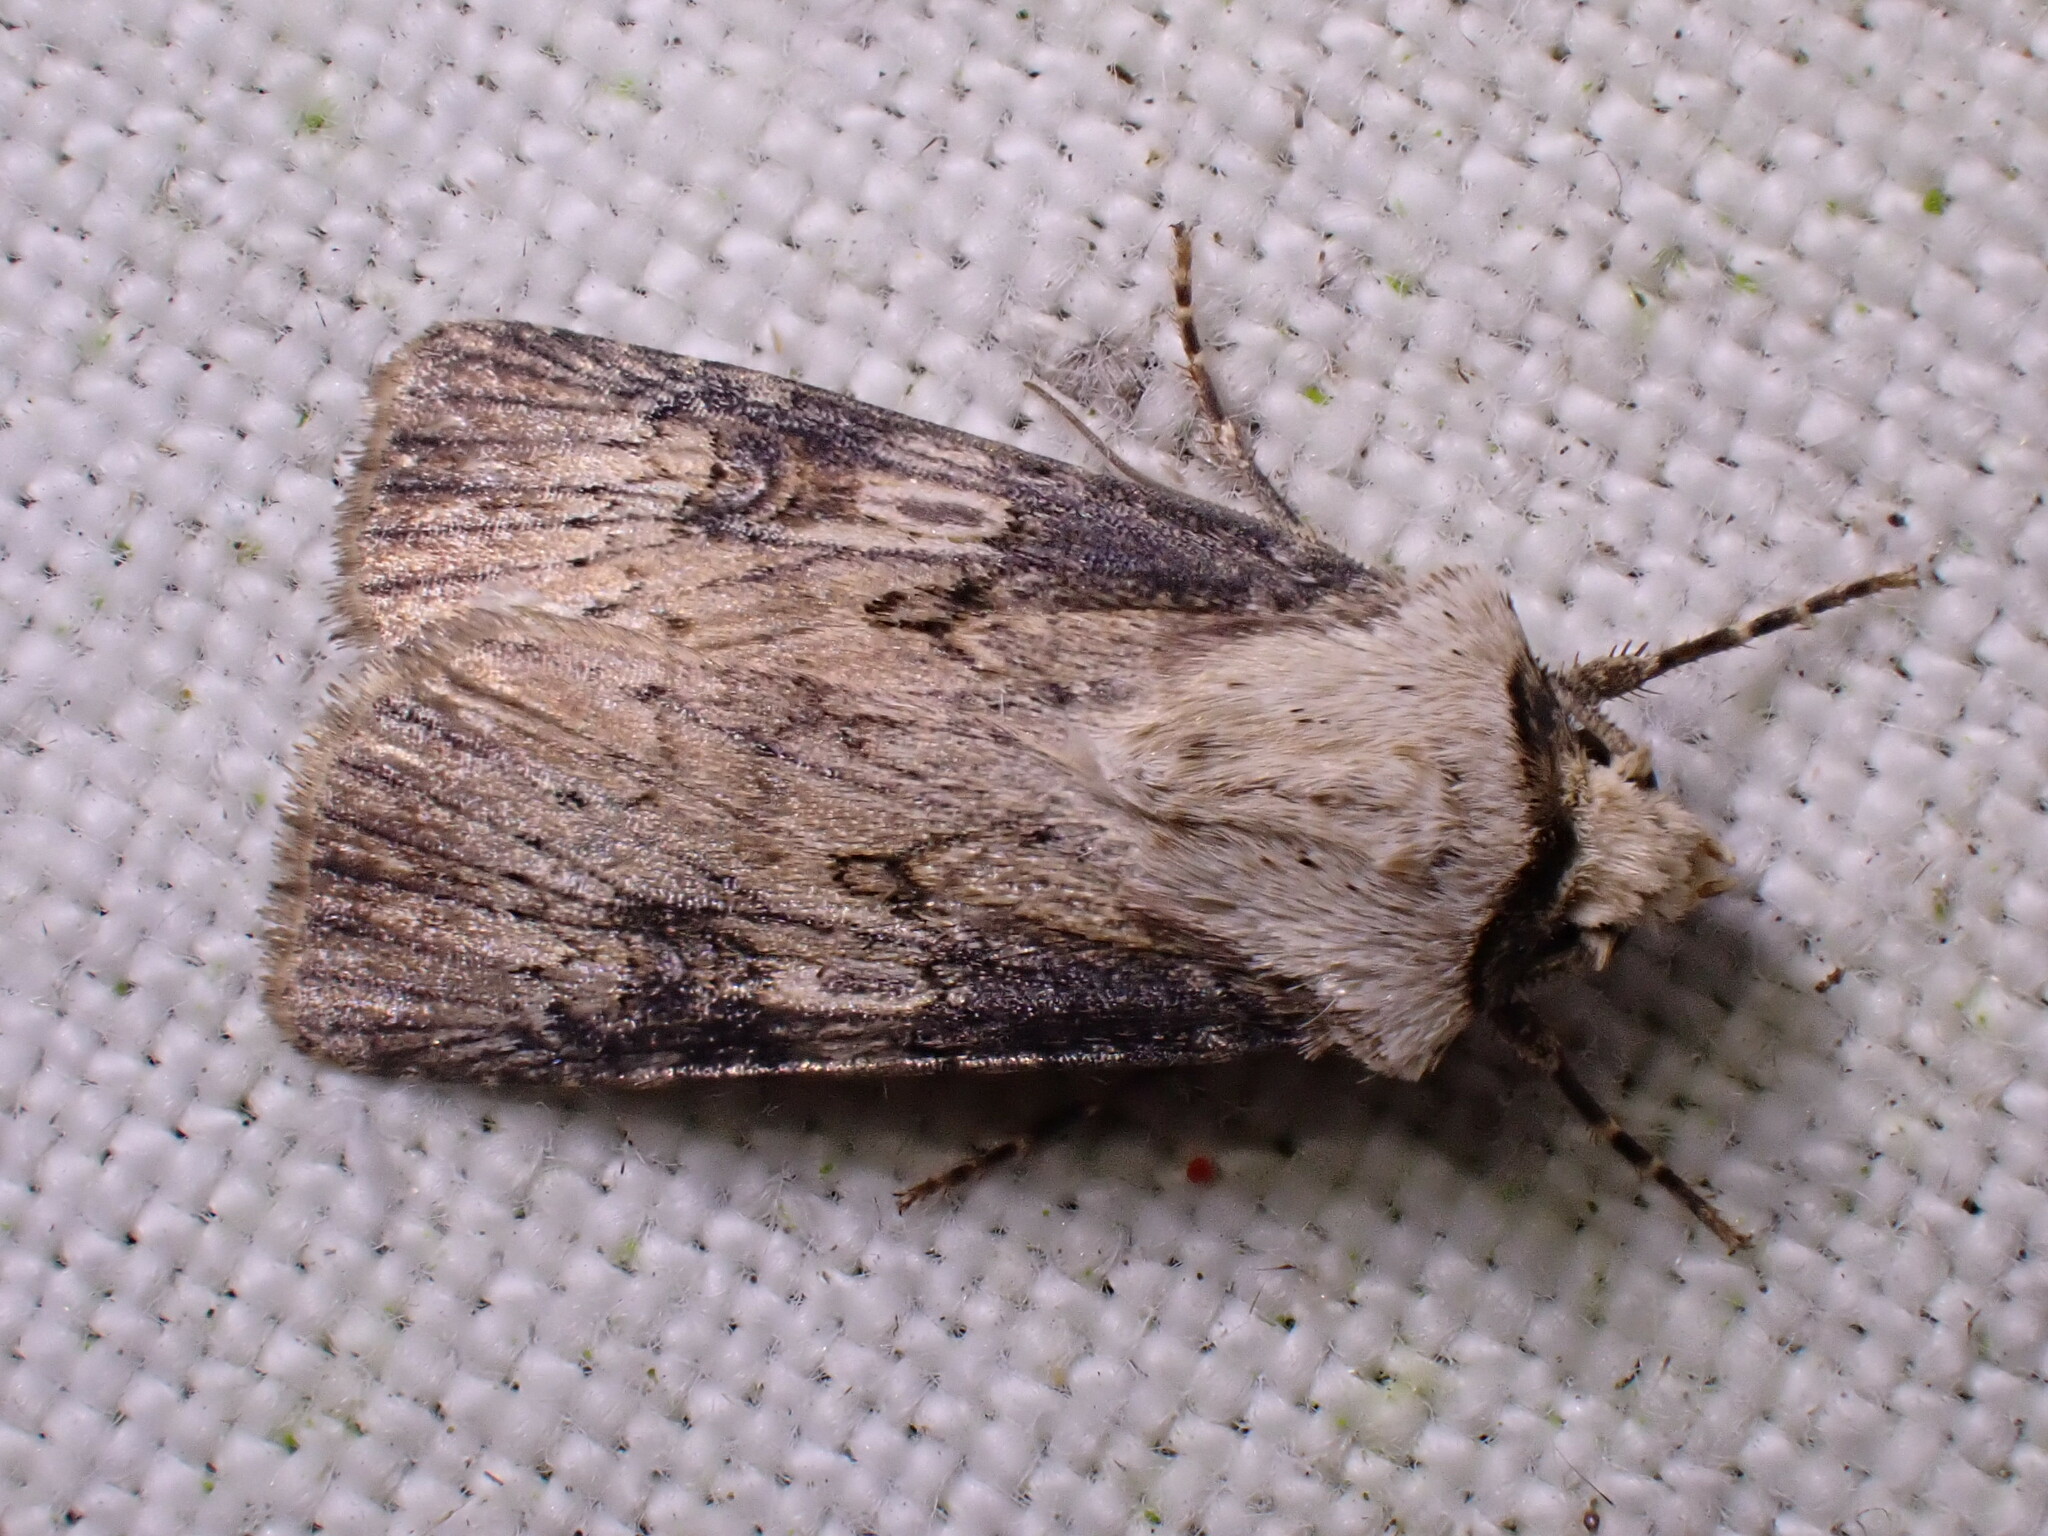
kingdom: Animalia
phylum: Arthropoda
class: Insecta
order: Lepidoptera
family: Noctuidae
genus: Agrotis
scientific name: Agrotis puta
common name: Shuttle-shaped dart
